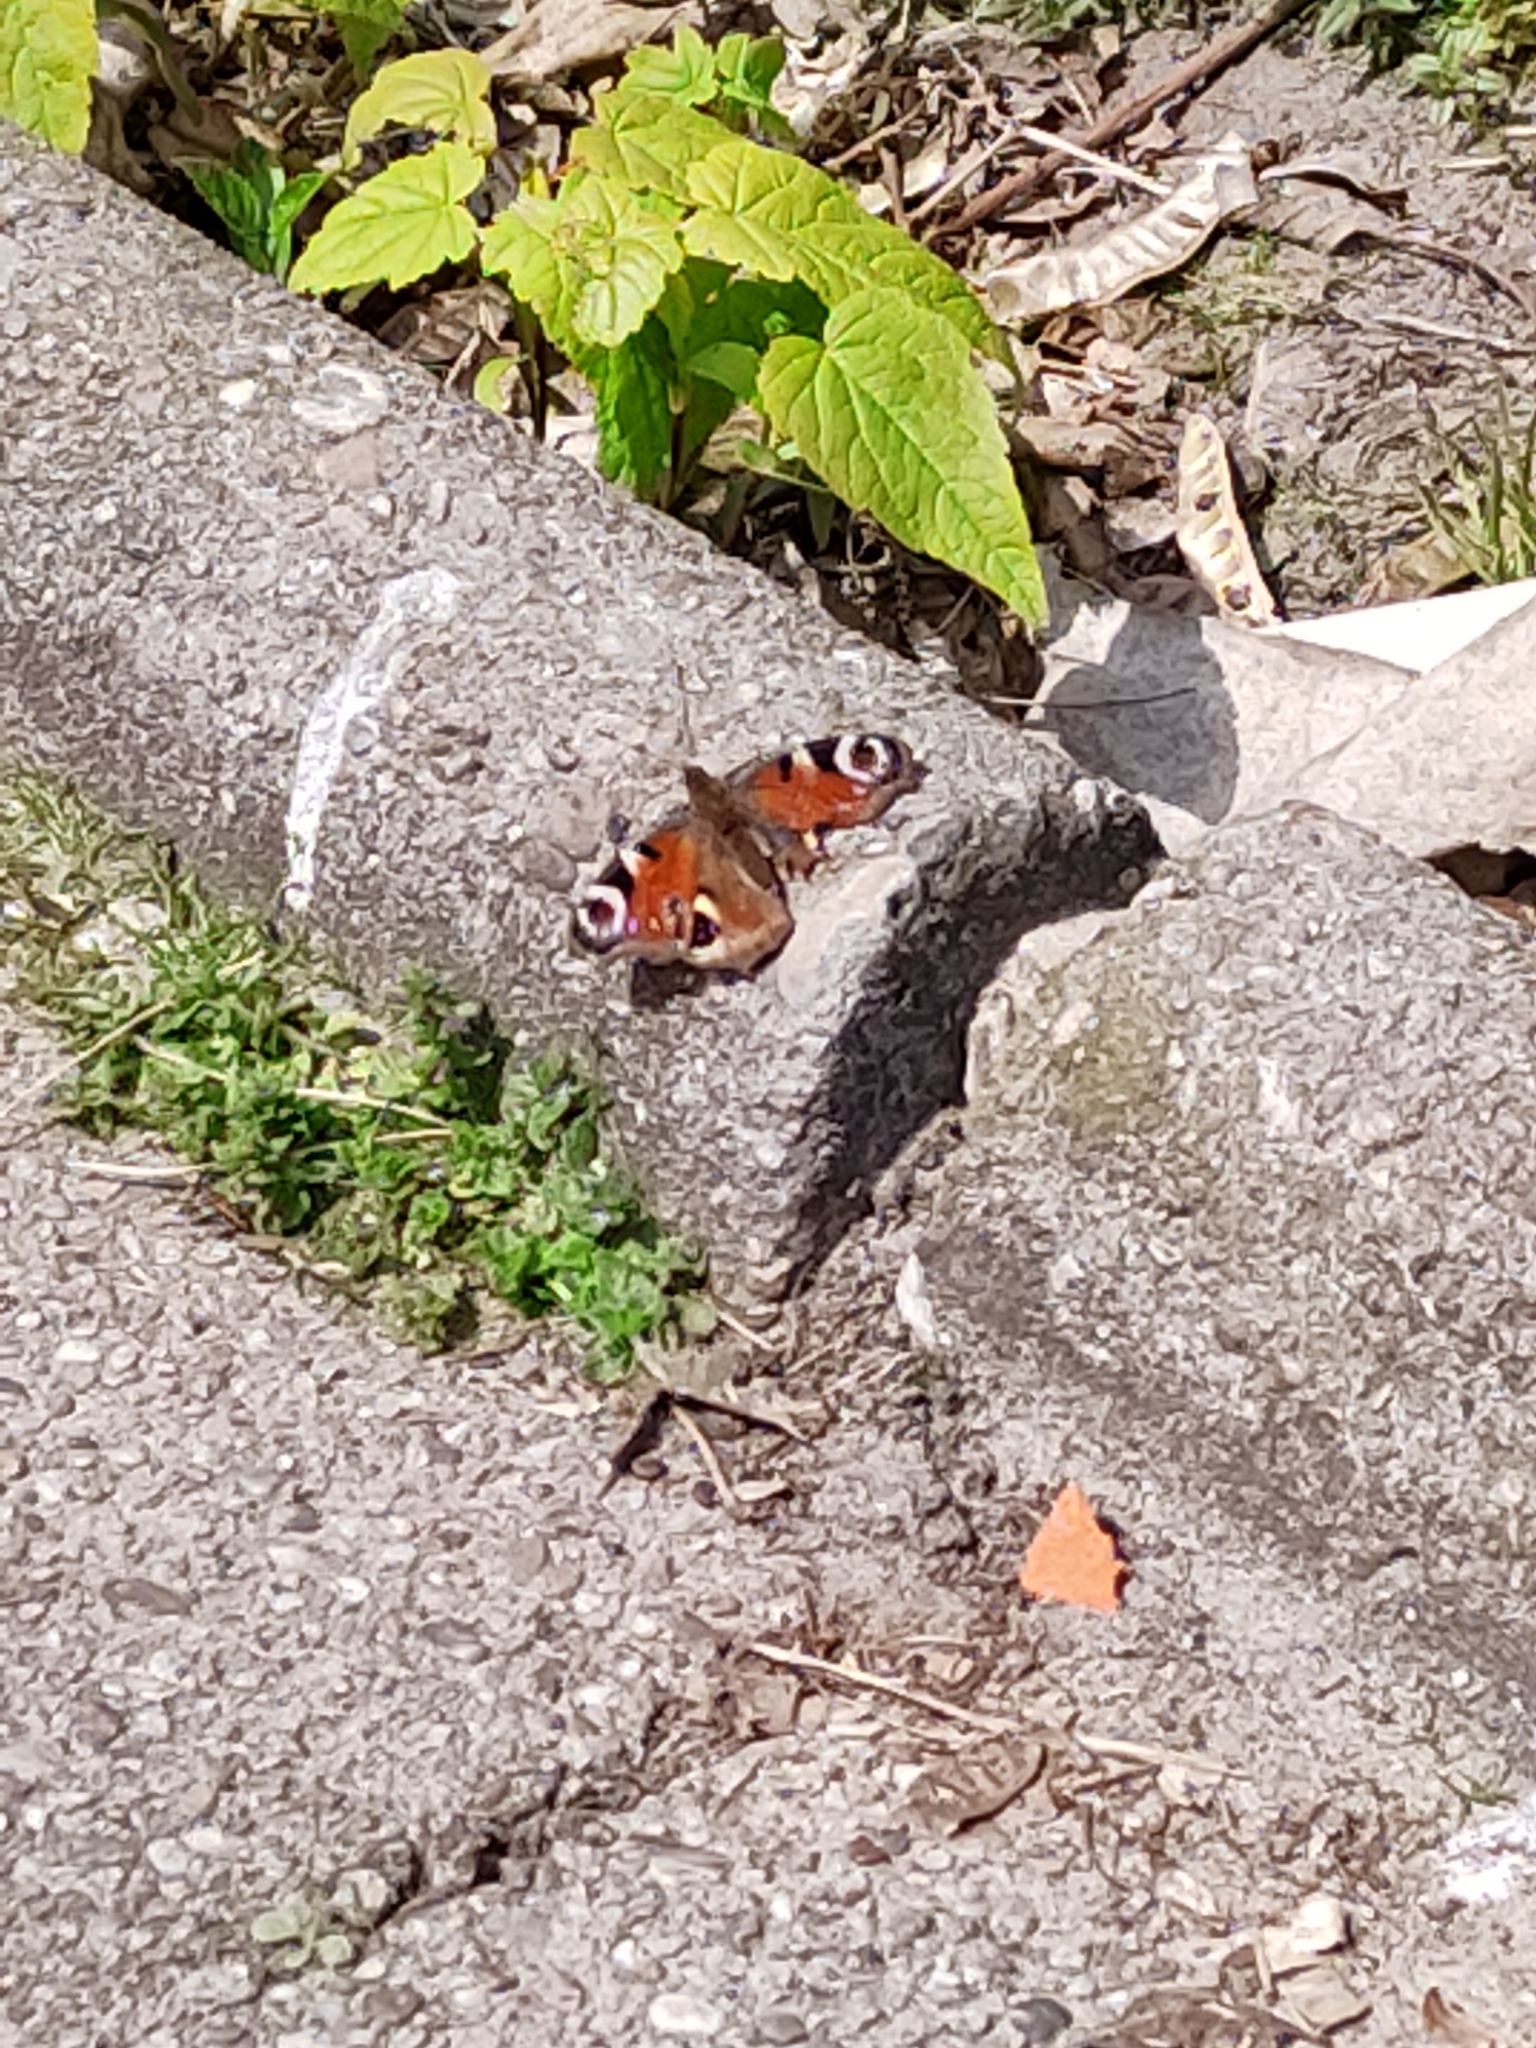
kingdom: Animalia
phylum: Arthropoda
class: Insecta
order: Lepidoptera
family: Nymphalidae
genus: Aglais
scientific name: Aglais io
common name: Peacock
